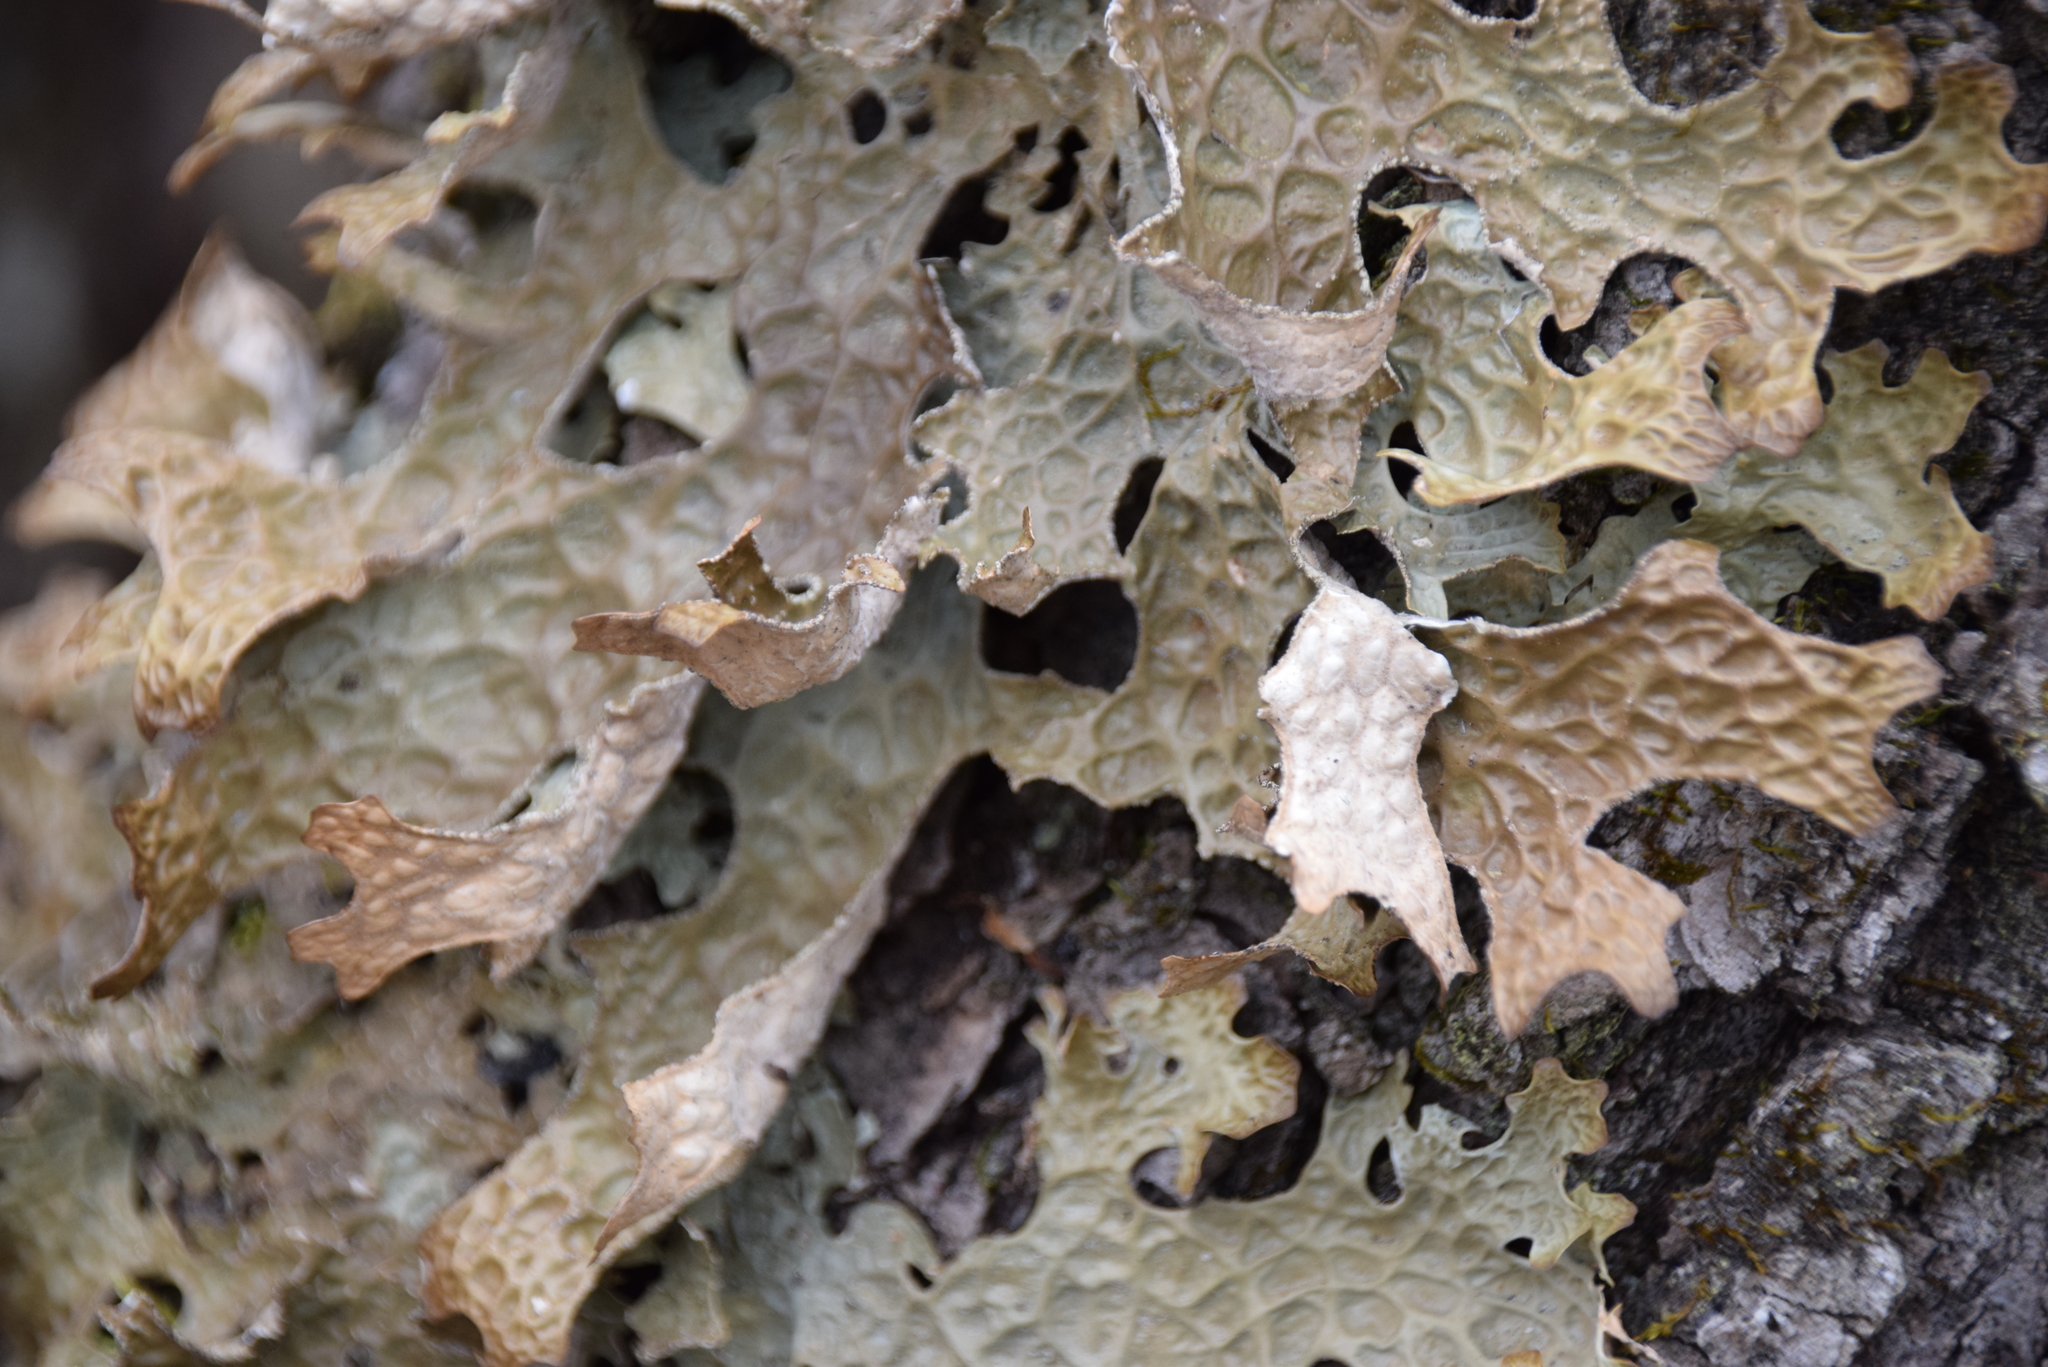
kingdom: Fungi
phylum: Ascomycota
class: Lecanoromycetes
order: Peltigerales
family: Lobariaceae
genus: Lobaria
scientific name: Lobaria pulmonaria
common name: Lungwort
